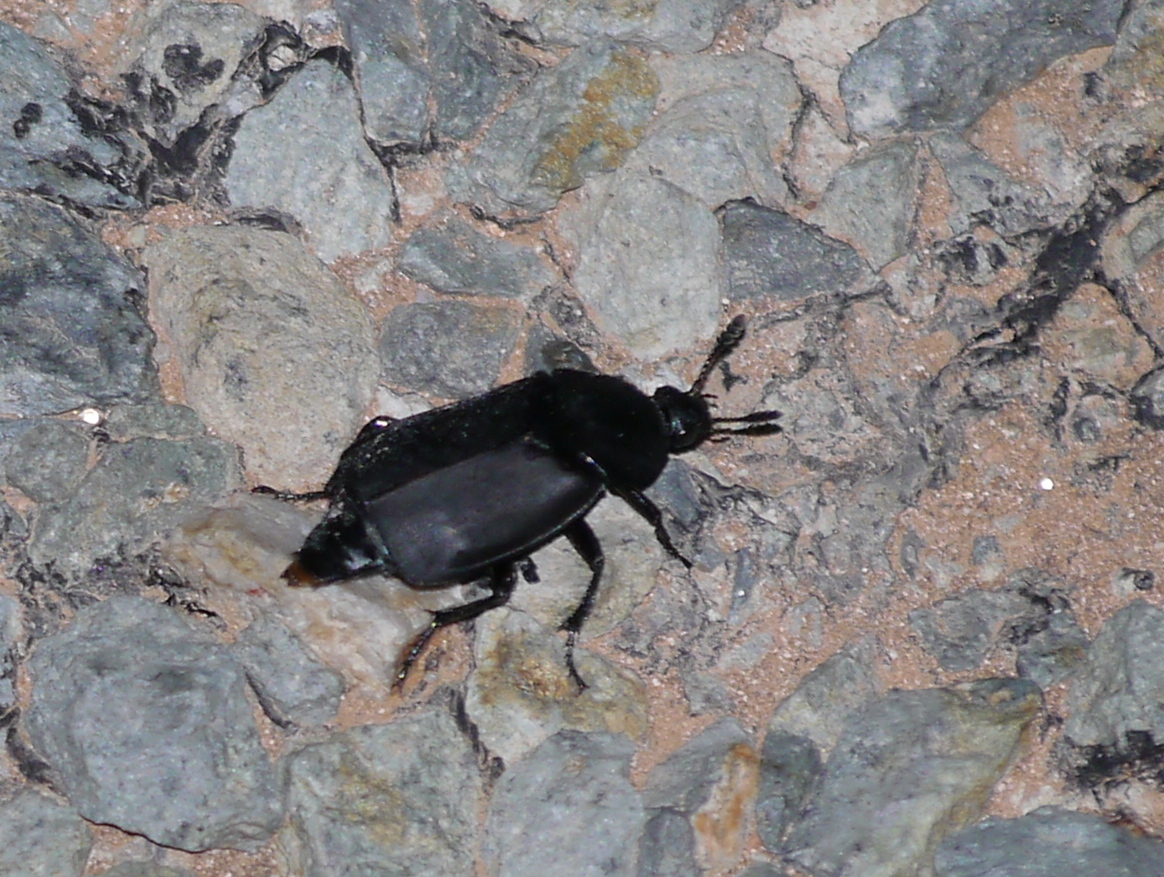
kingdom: Animalia
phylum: Arthropoda
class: Insecta
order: Coleoptera
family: Staphylinidae
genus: Thanatophilus
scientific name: Thanatophilus truncatus
